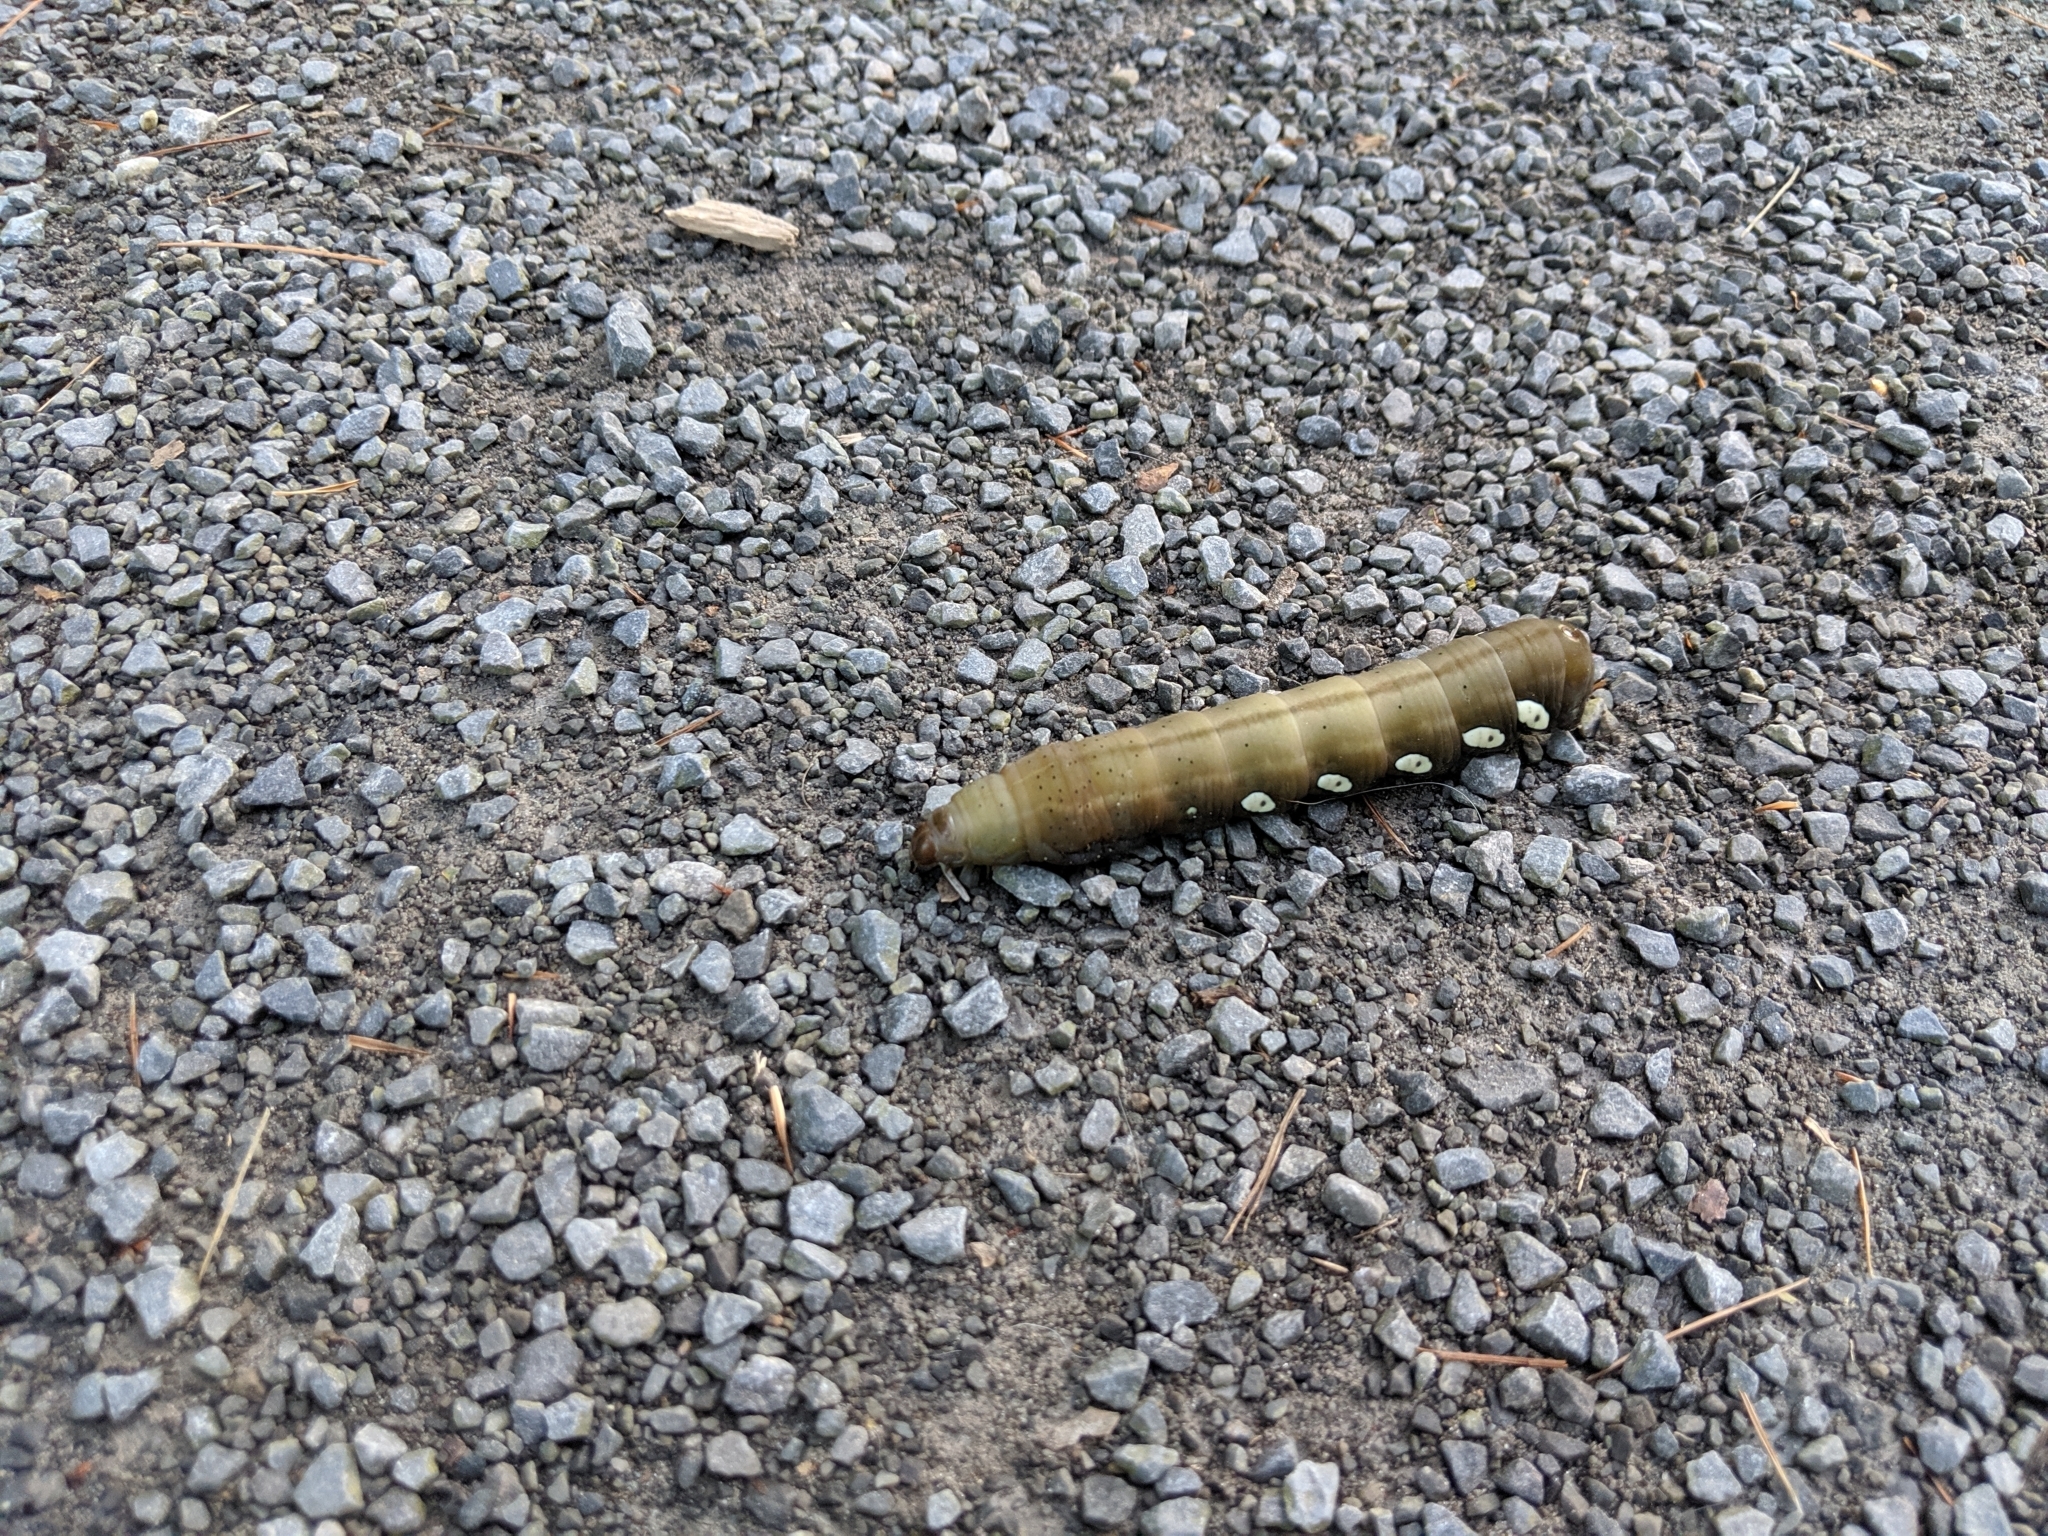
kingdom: Animalia
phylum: Arthropoda
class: Insecta
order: Lepidoptera
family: Sphingidae
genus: Eumorpha
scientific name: Eumorpha pandorus
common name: Pandora sphinx
